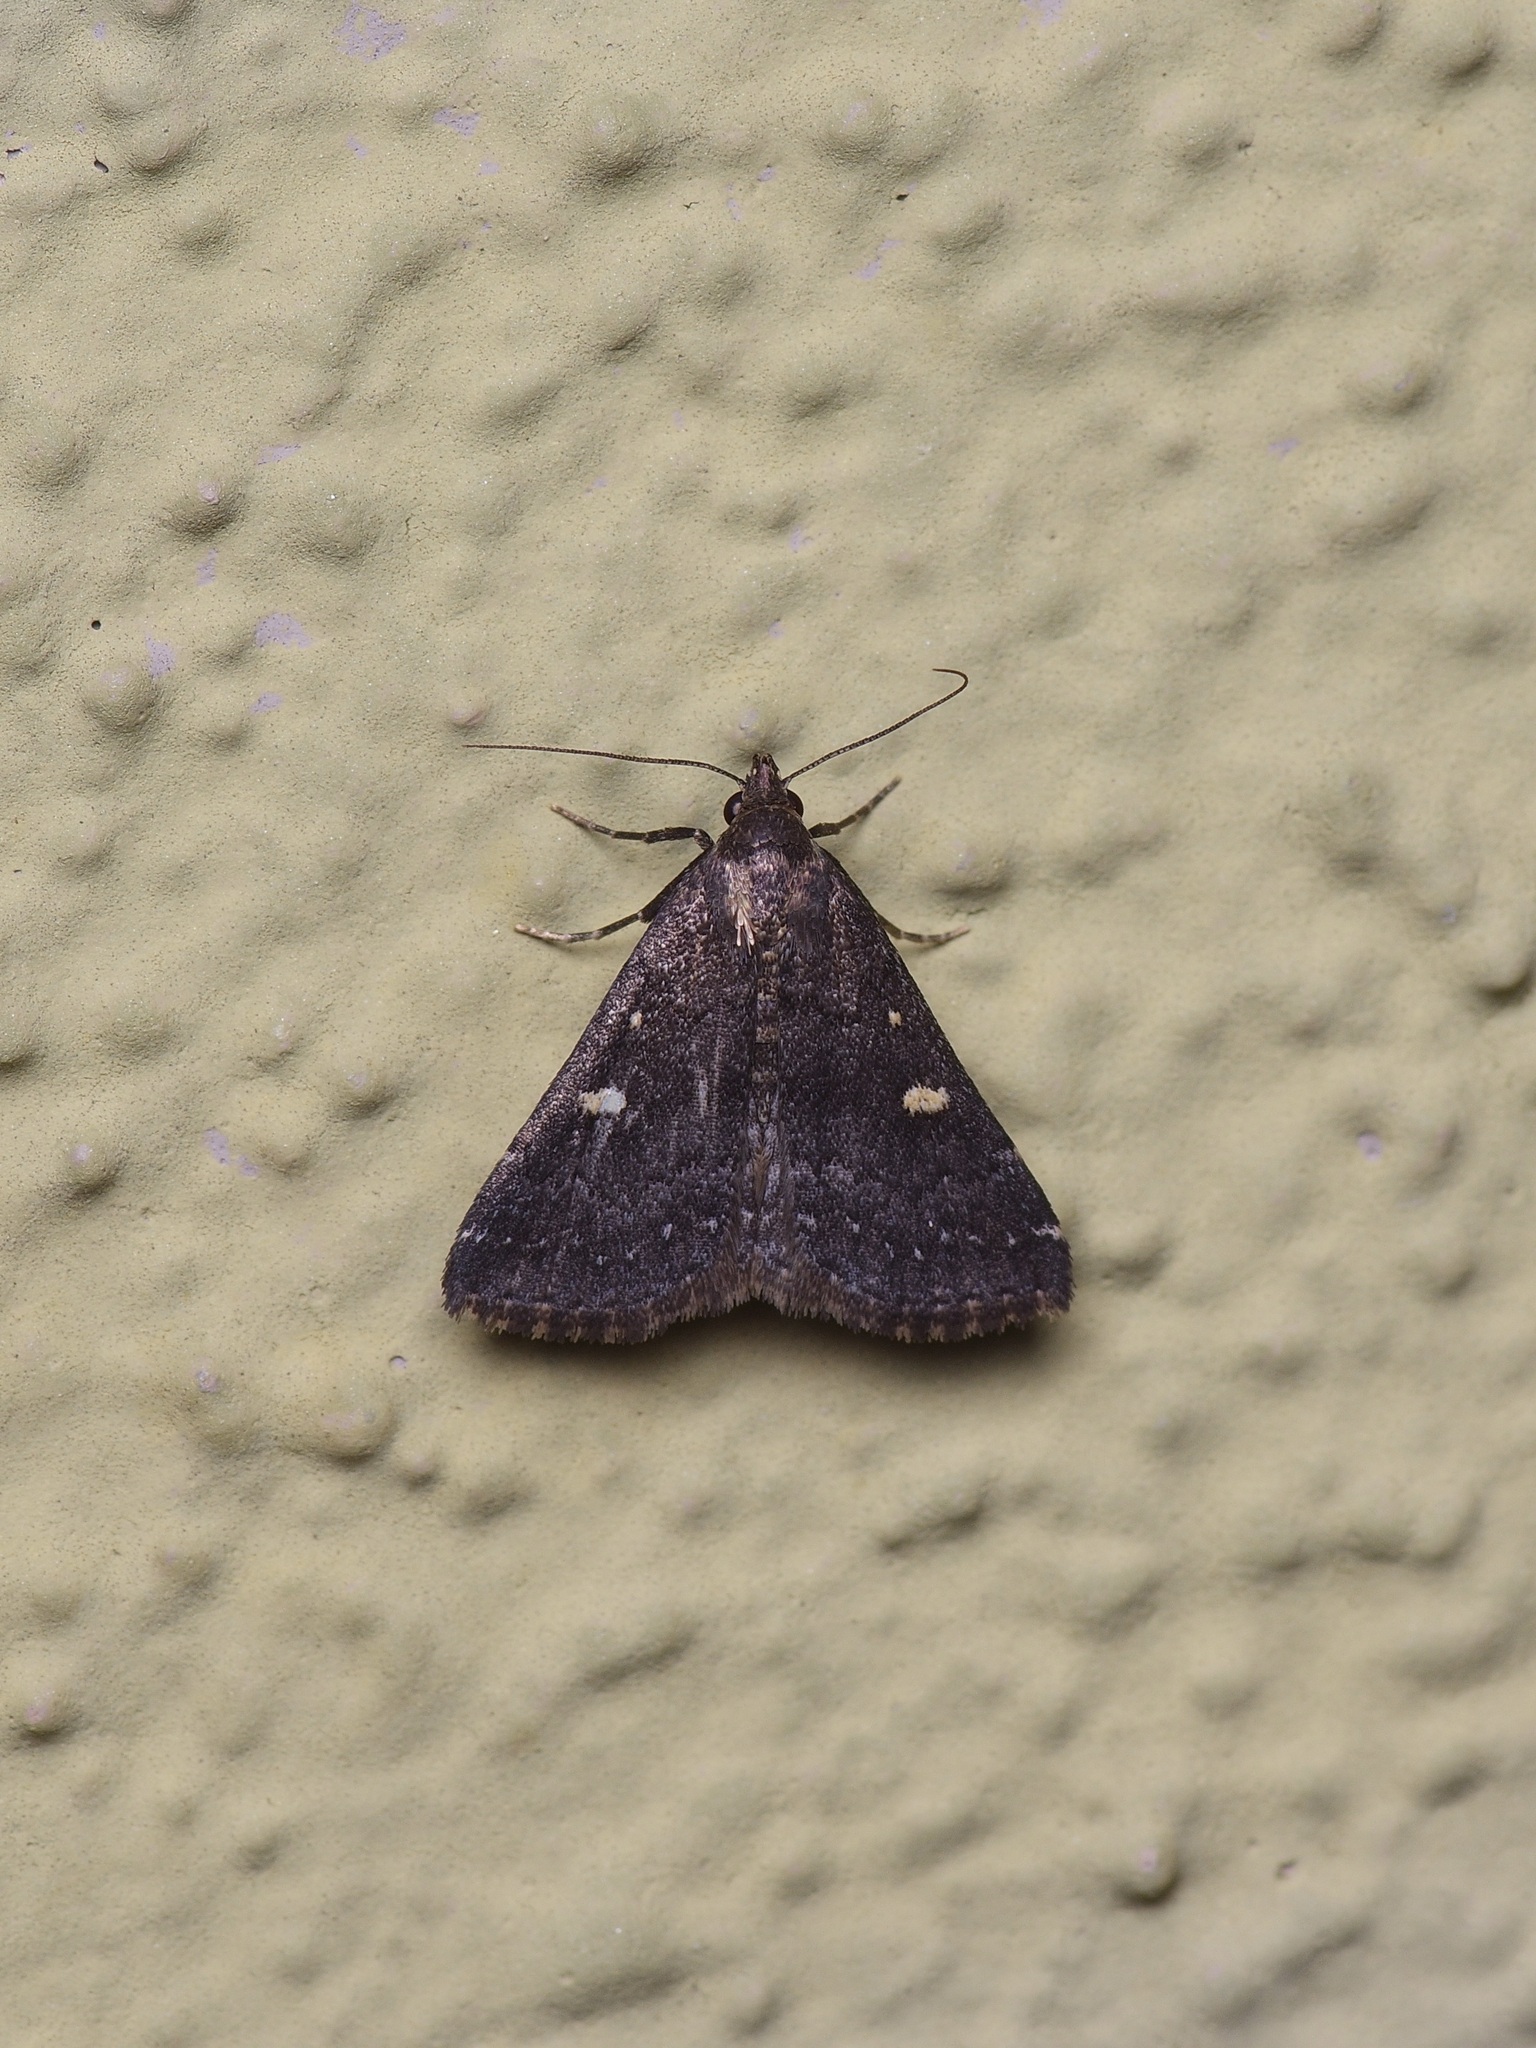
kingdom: Animalia
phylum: Arthropoda
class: Insecta
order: Lepidoptera
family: Erebidae
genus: Tetanolita
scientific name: Tetanolita mynesalis
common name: Smoky tetanolita moth
